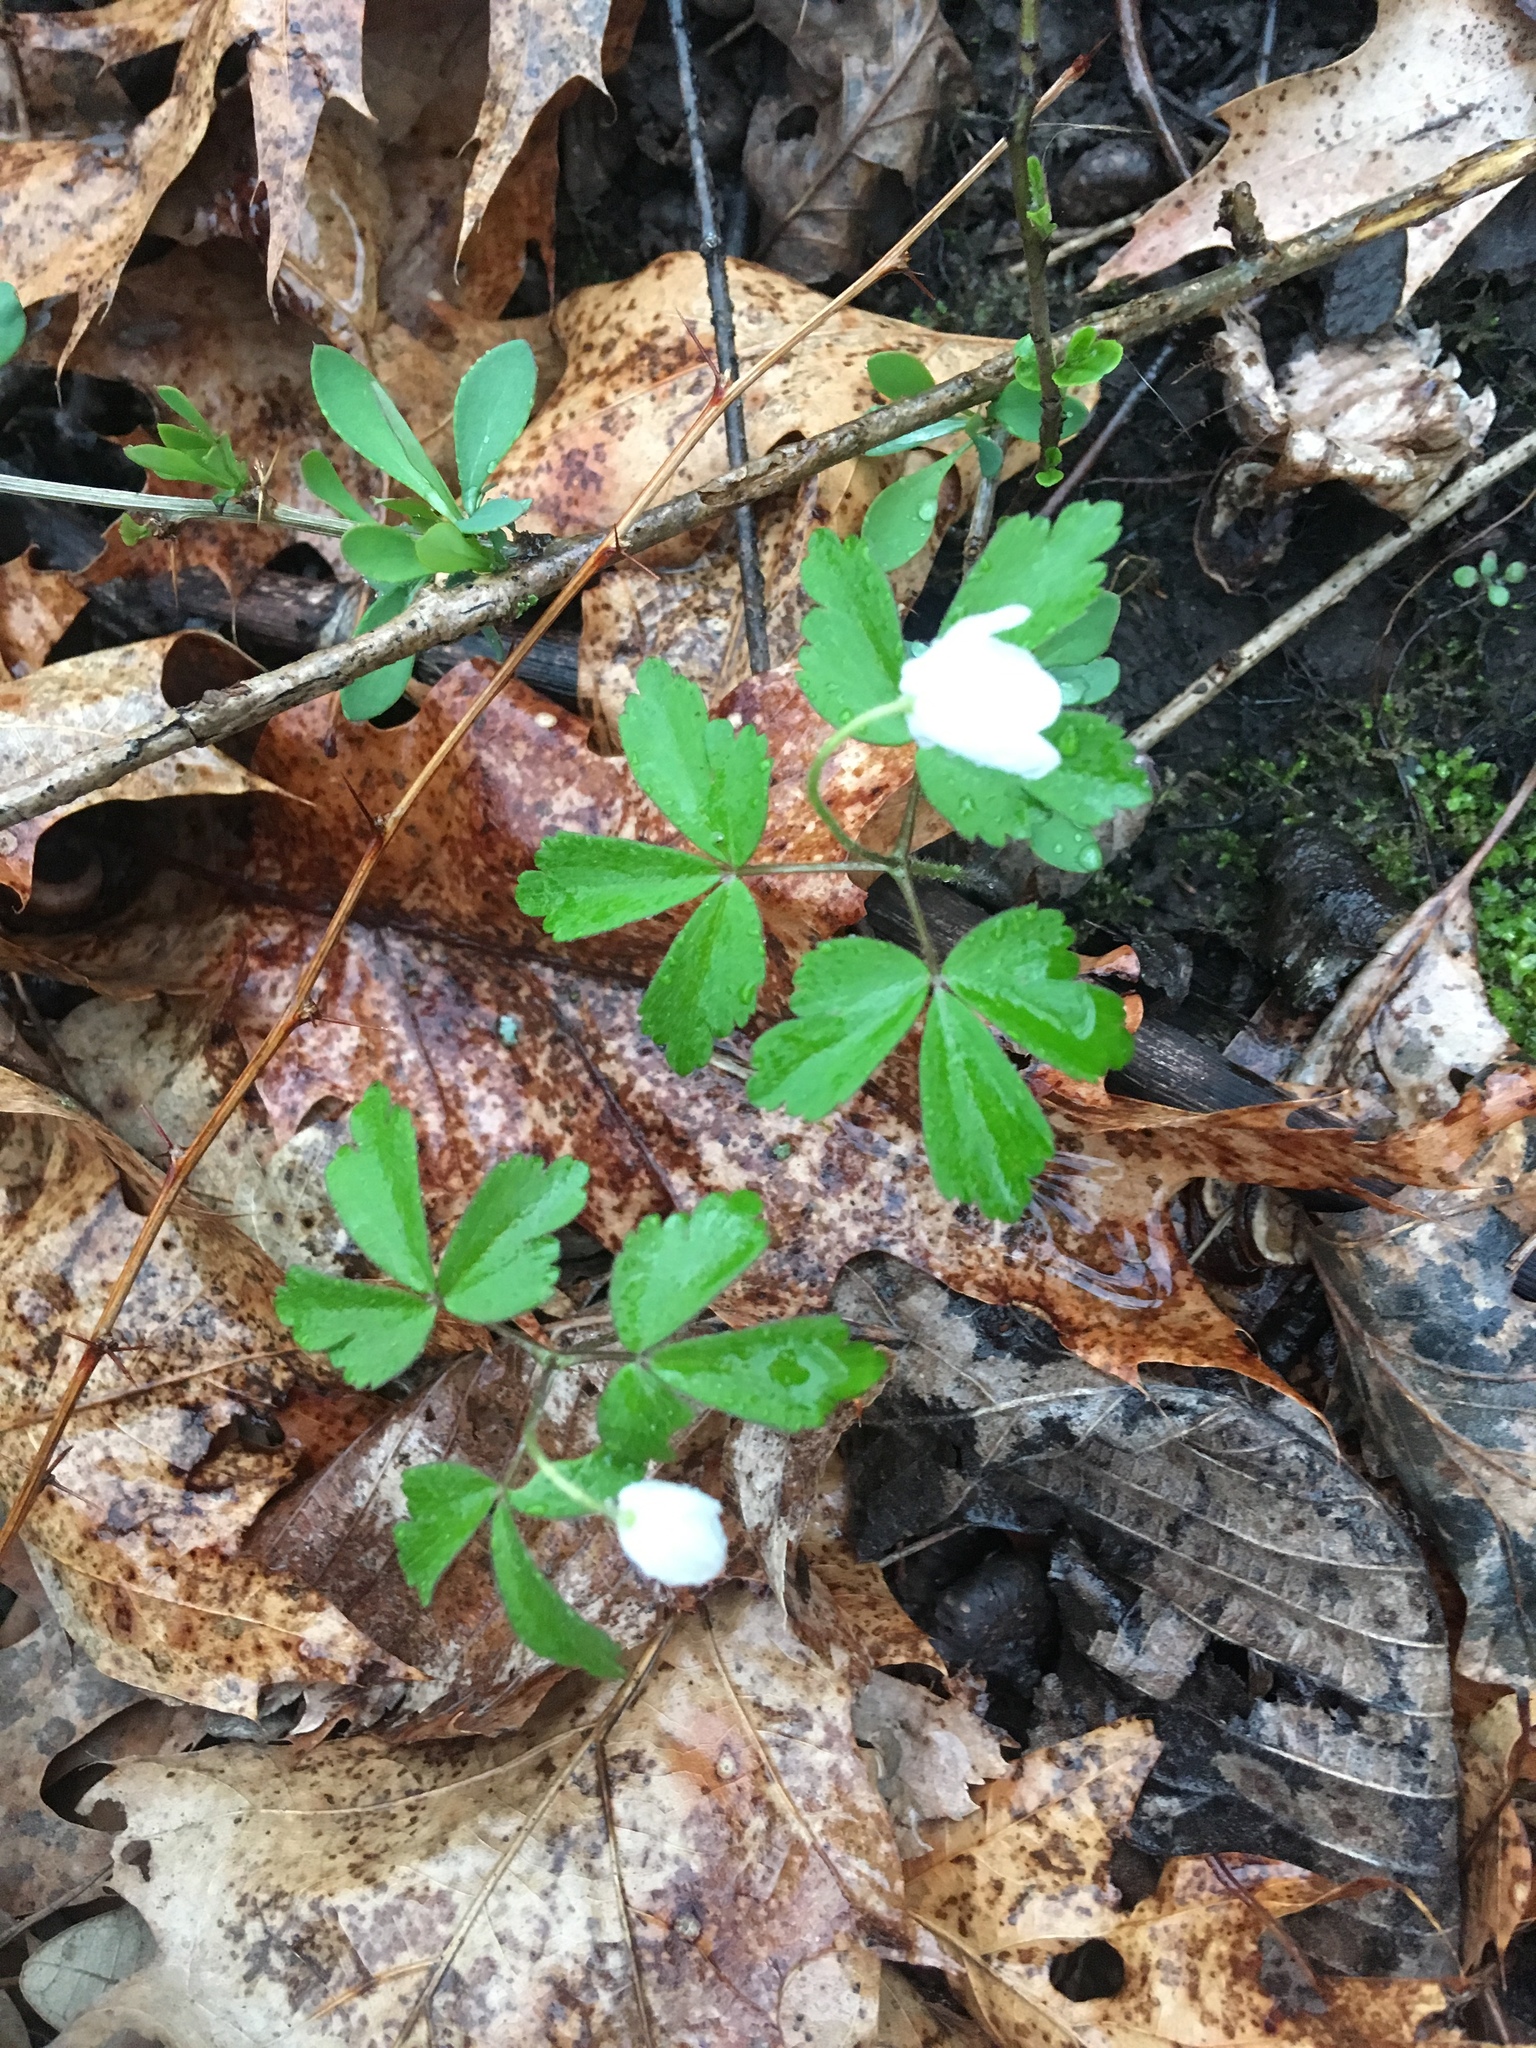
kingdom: Plantae
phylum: Tracheophyta
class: Magnoliopsida
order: Ranunculales
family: Ranunculaceae
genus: Anemone
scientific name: Anemone quinquefolia
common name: Wood anemone
